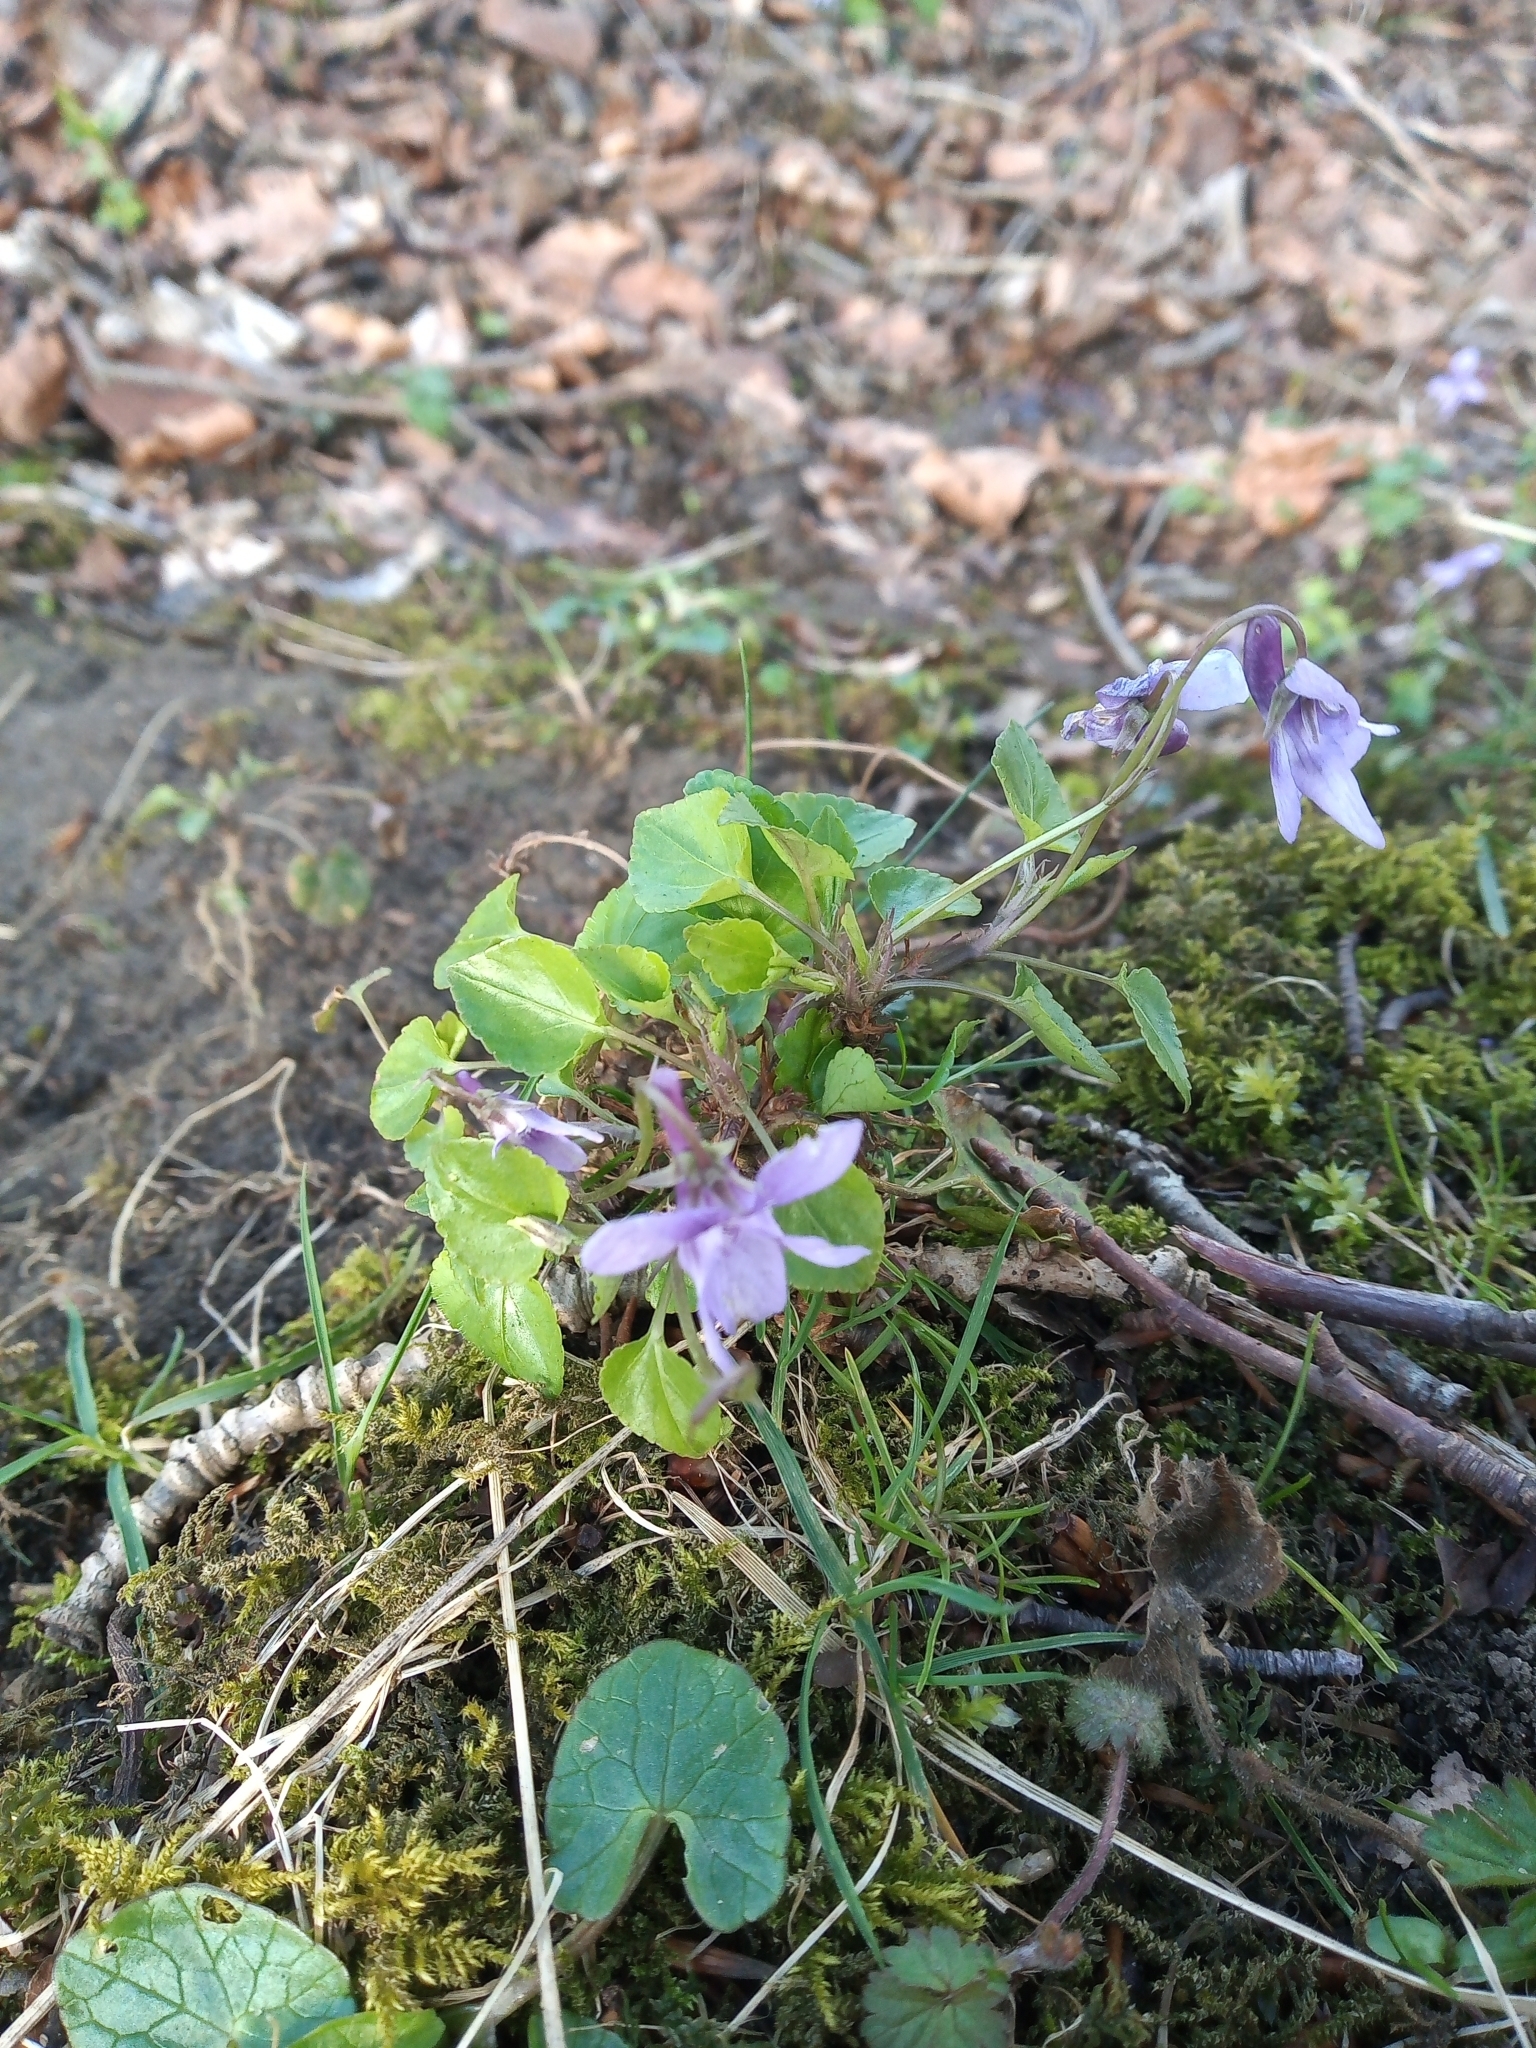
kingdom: Plantae
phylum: Tracheophyta
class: Magnoliopsida
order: Malpighiales
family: Violaceae
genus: Viola
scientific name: Viola reichenbachiana
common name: Early dog-violet
